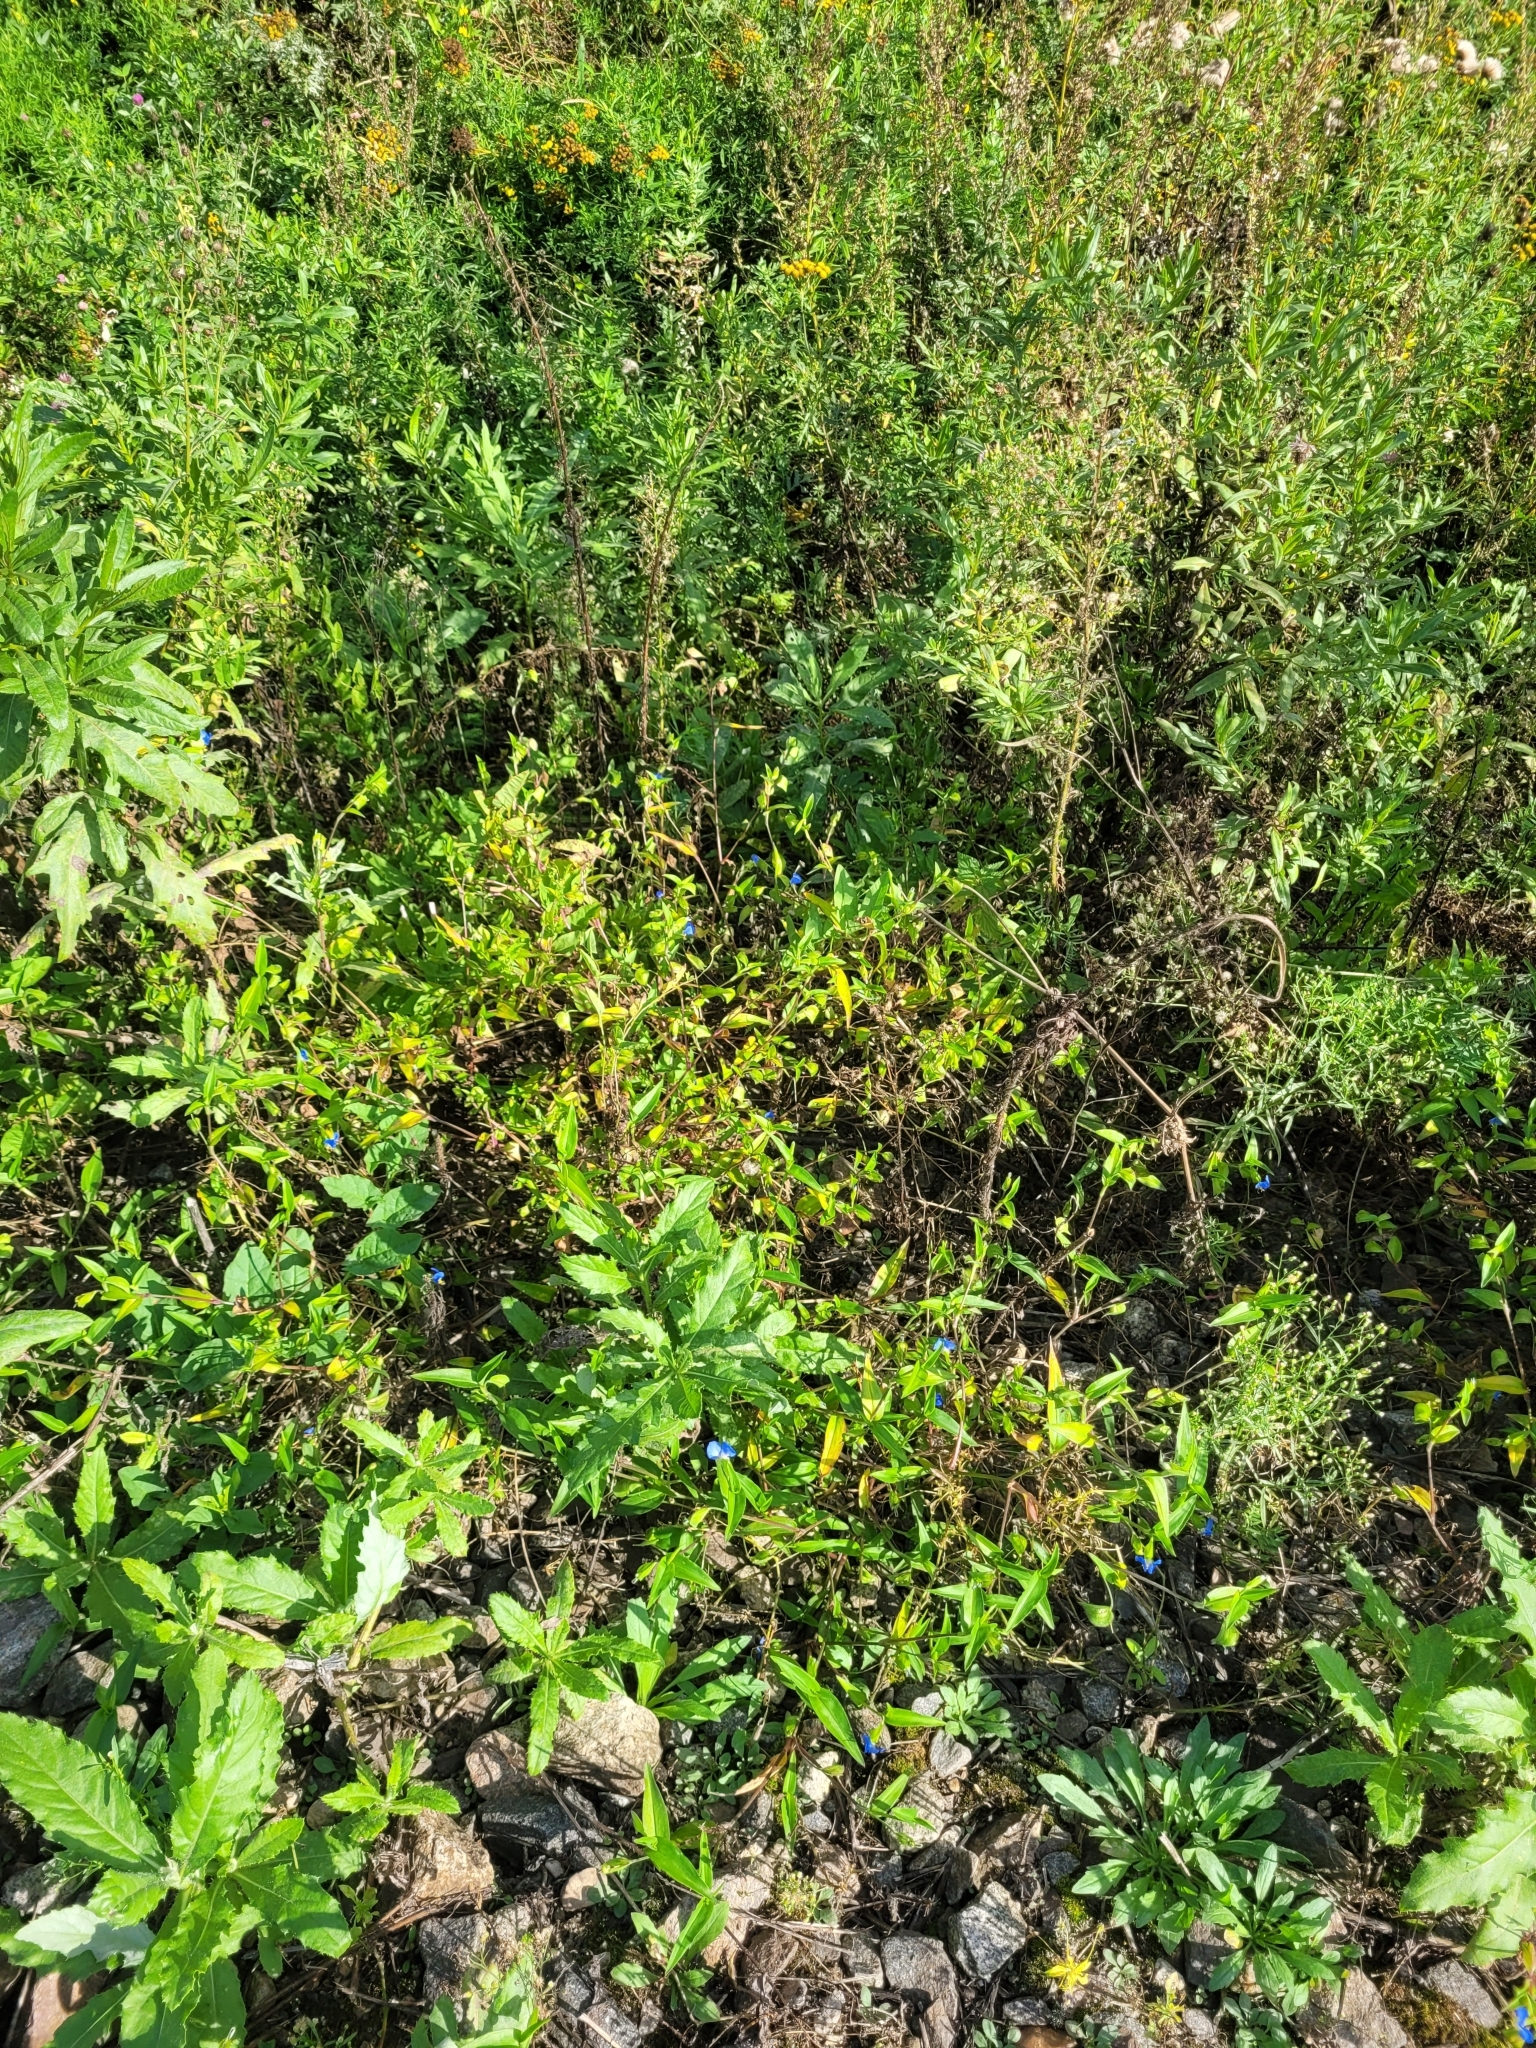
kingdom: Plantae
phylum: Tracheophyta
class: Liliopsida
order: Commelinales
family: Commelinaceae
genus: Commelina
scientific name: Commelina communis
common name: Asiatic dayflower
